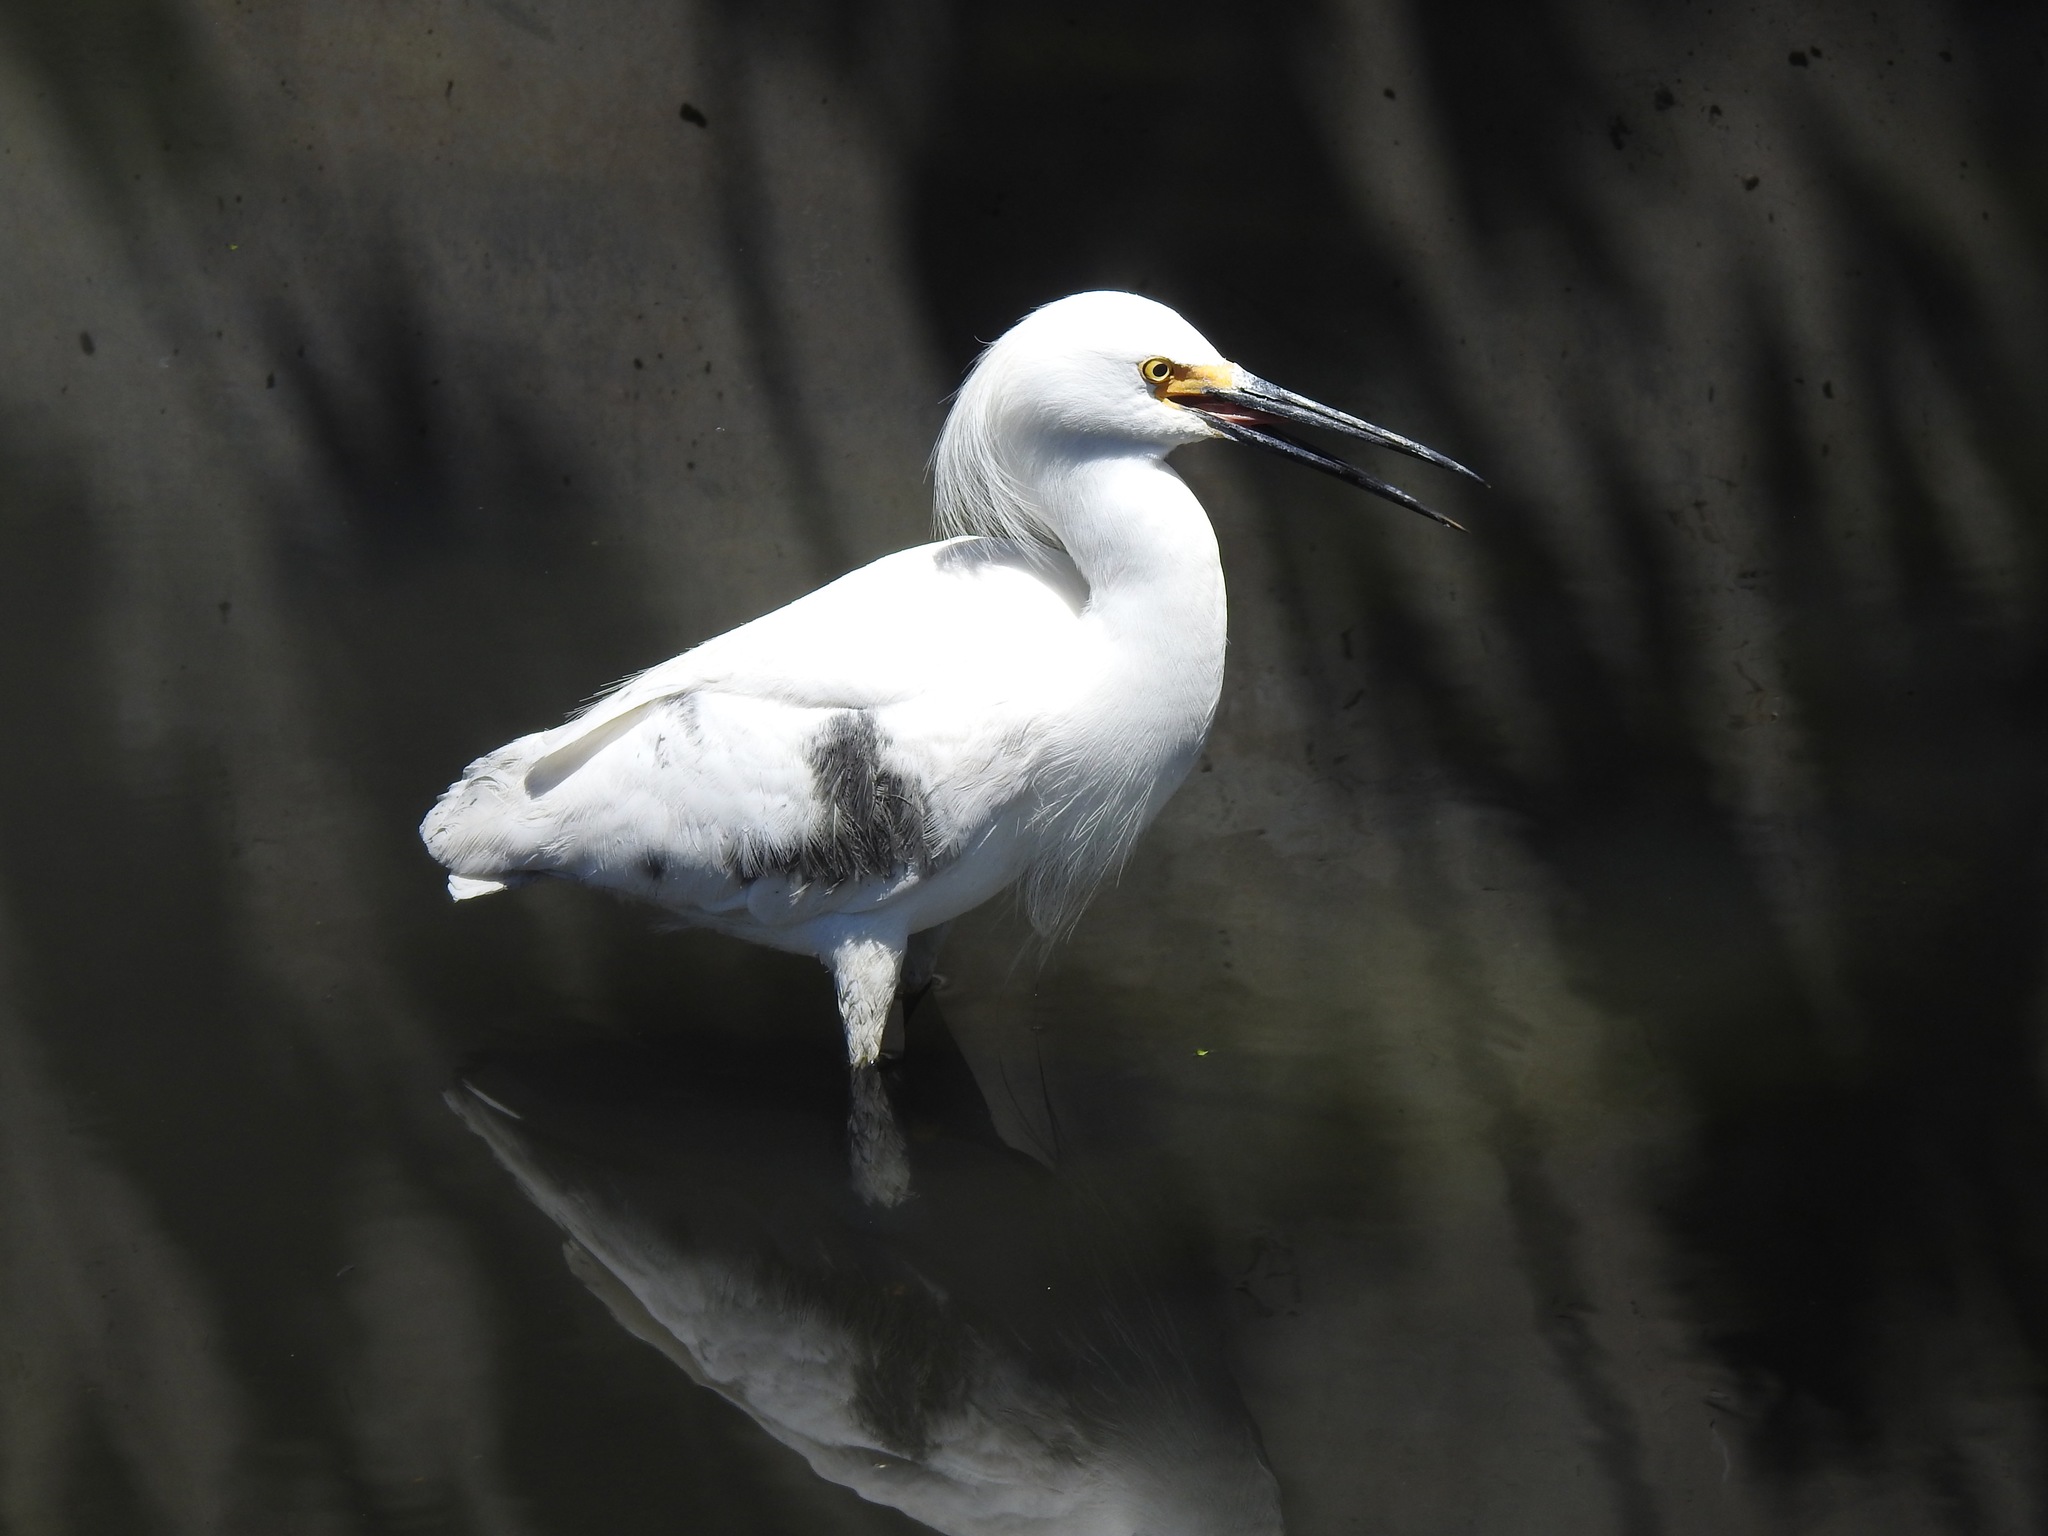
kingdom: Animalia
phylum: Chordata
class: Aves
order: Pelecaniformes
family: Ardeidae
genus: Egretta
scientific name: Egretta thula
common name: Snowy egret
